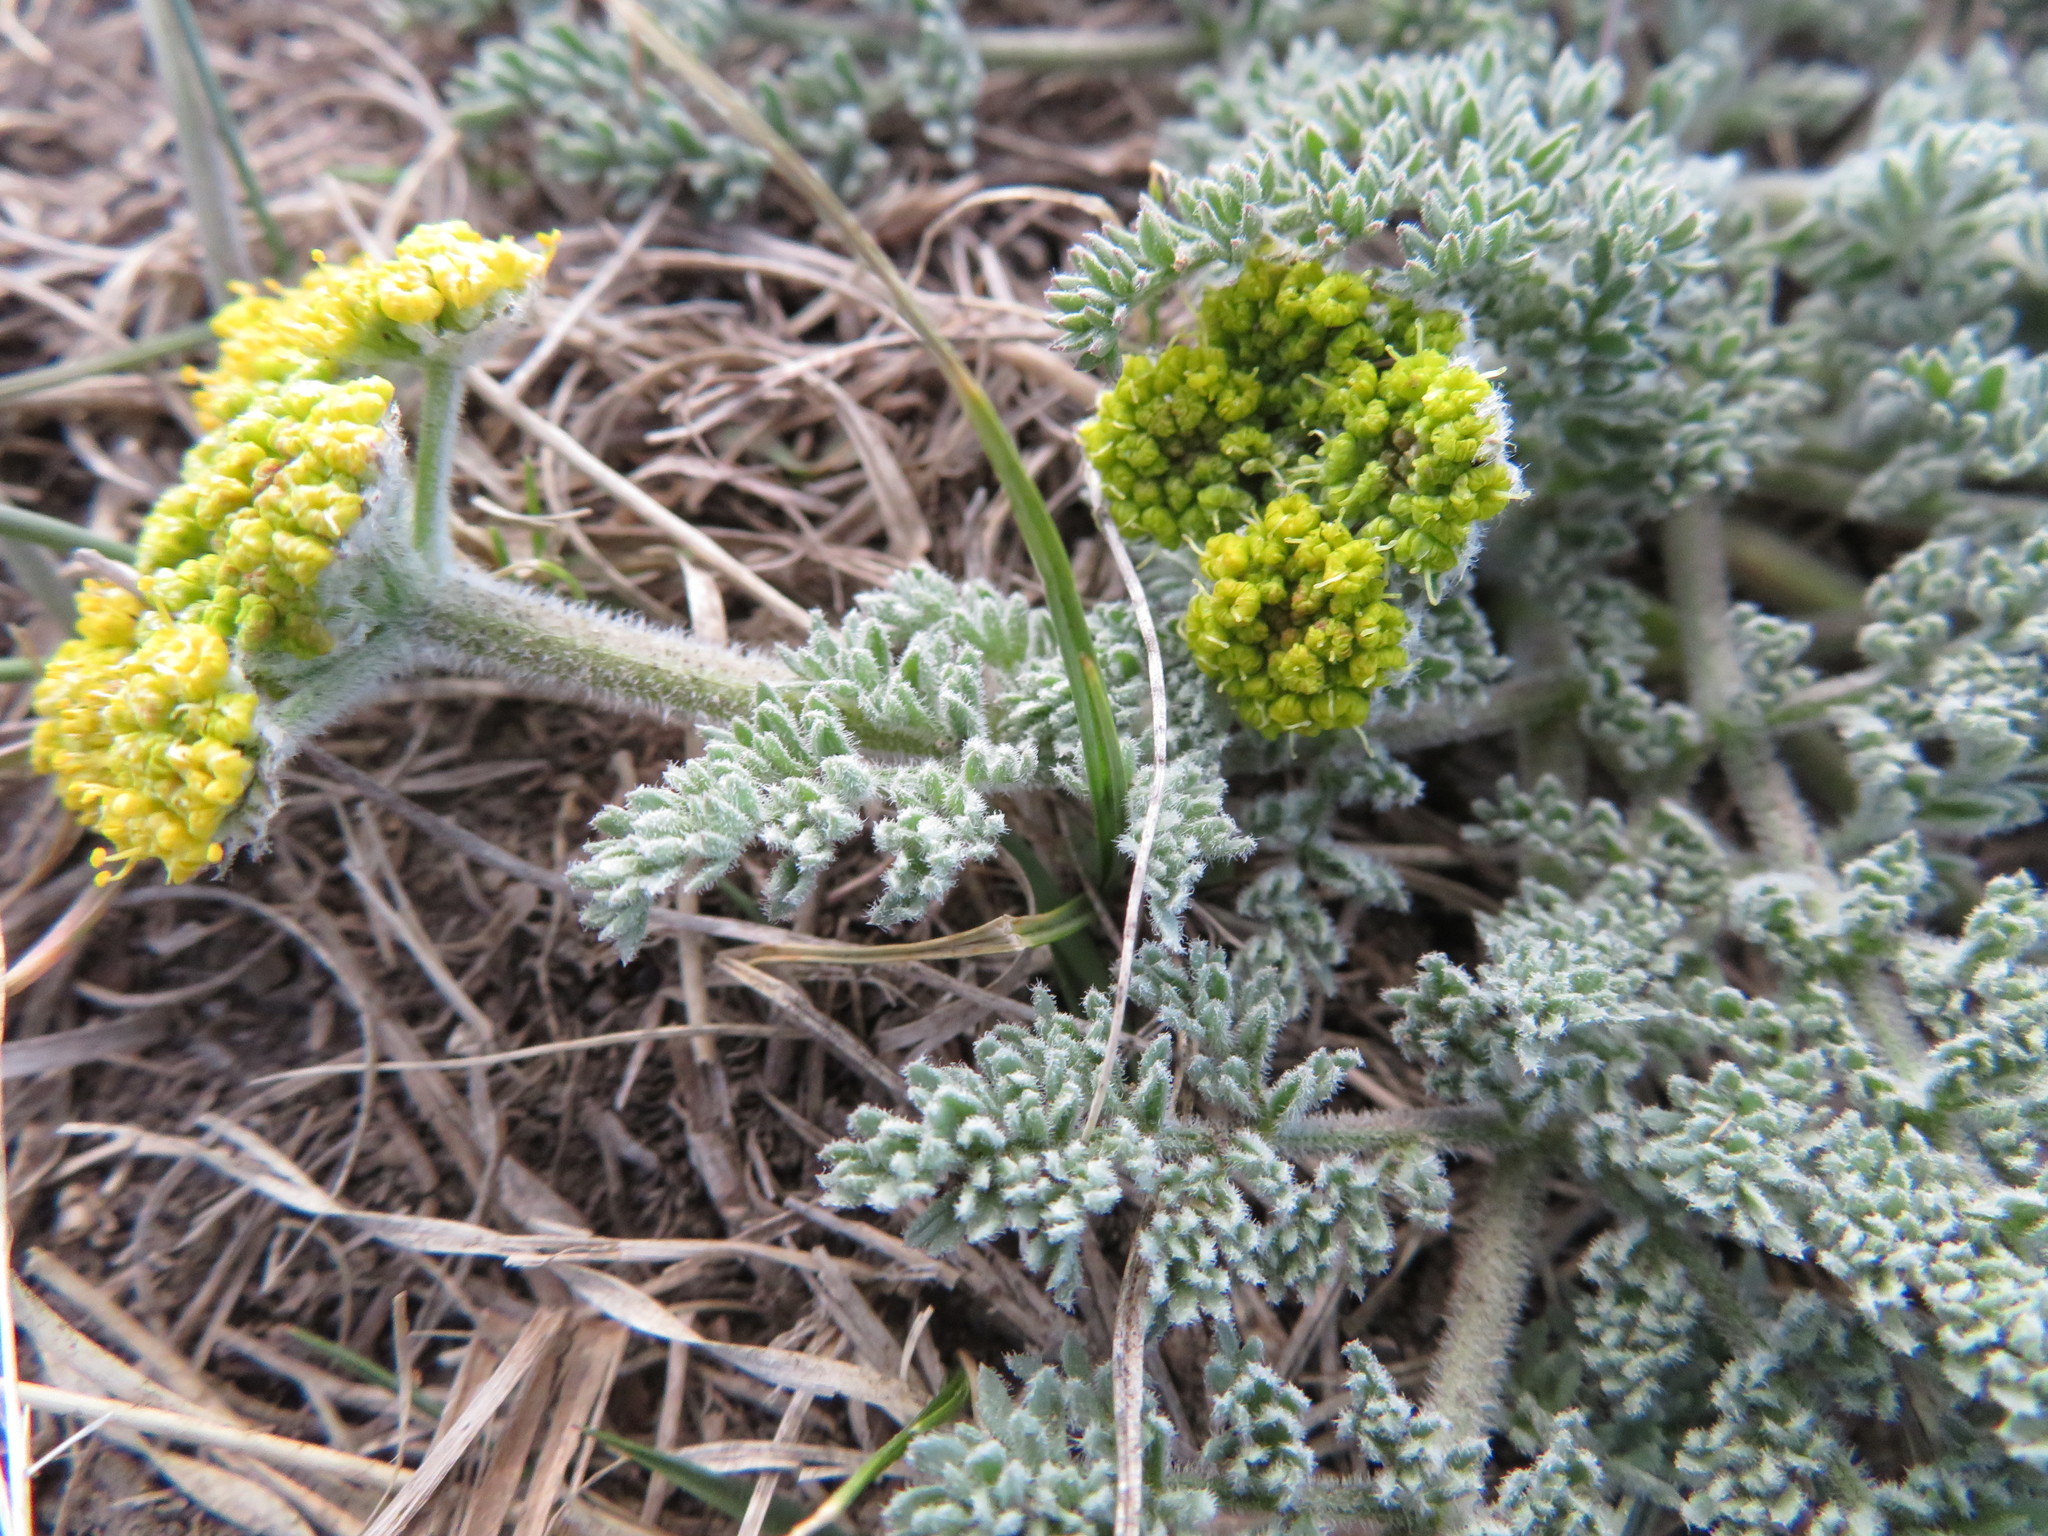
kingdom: Plantae
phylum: Tracheophyta
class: Magnoliopsida
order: Apiales
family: Apiaceae
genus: Lomatium
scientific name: Lomatium foeniculaceum
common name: Desert-parsley
